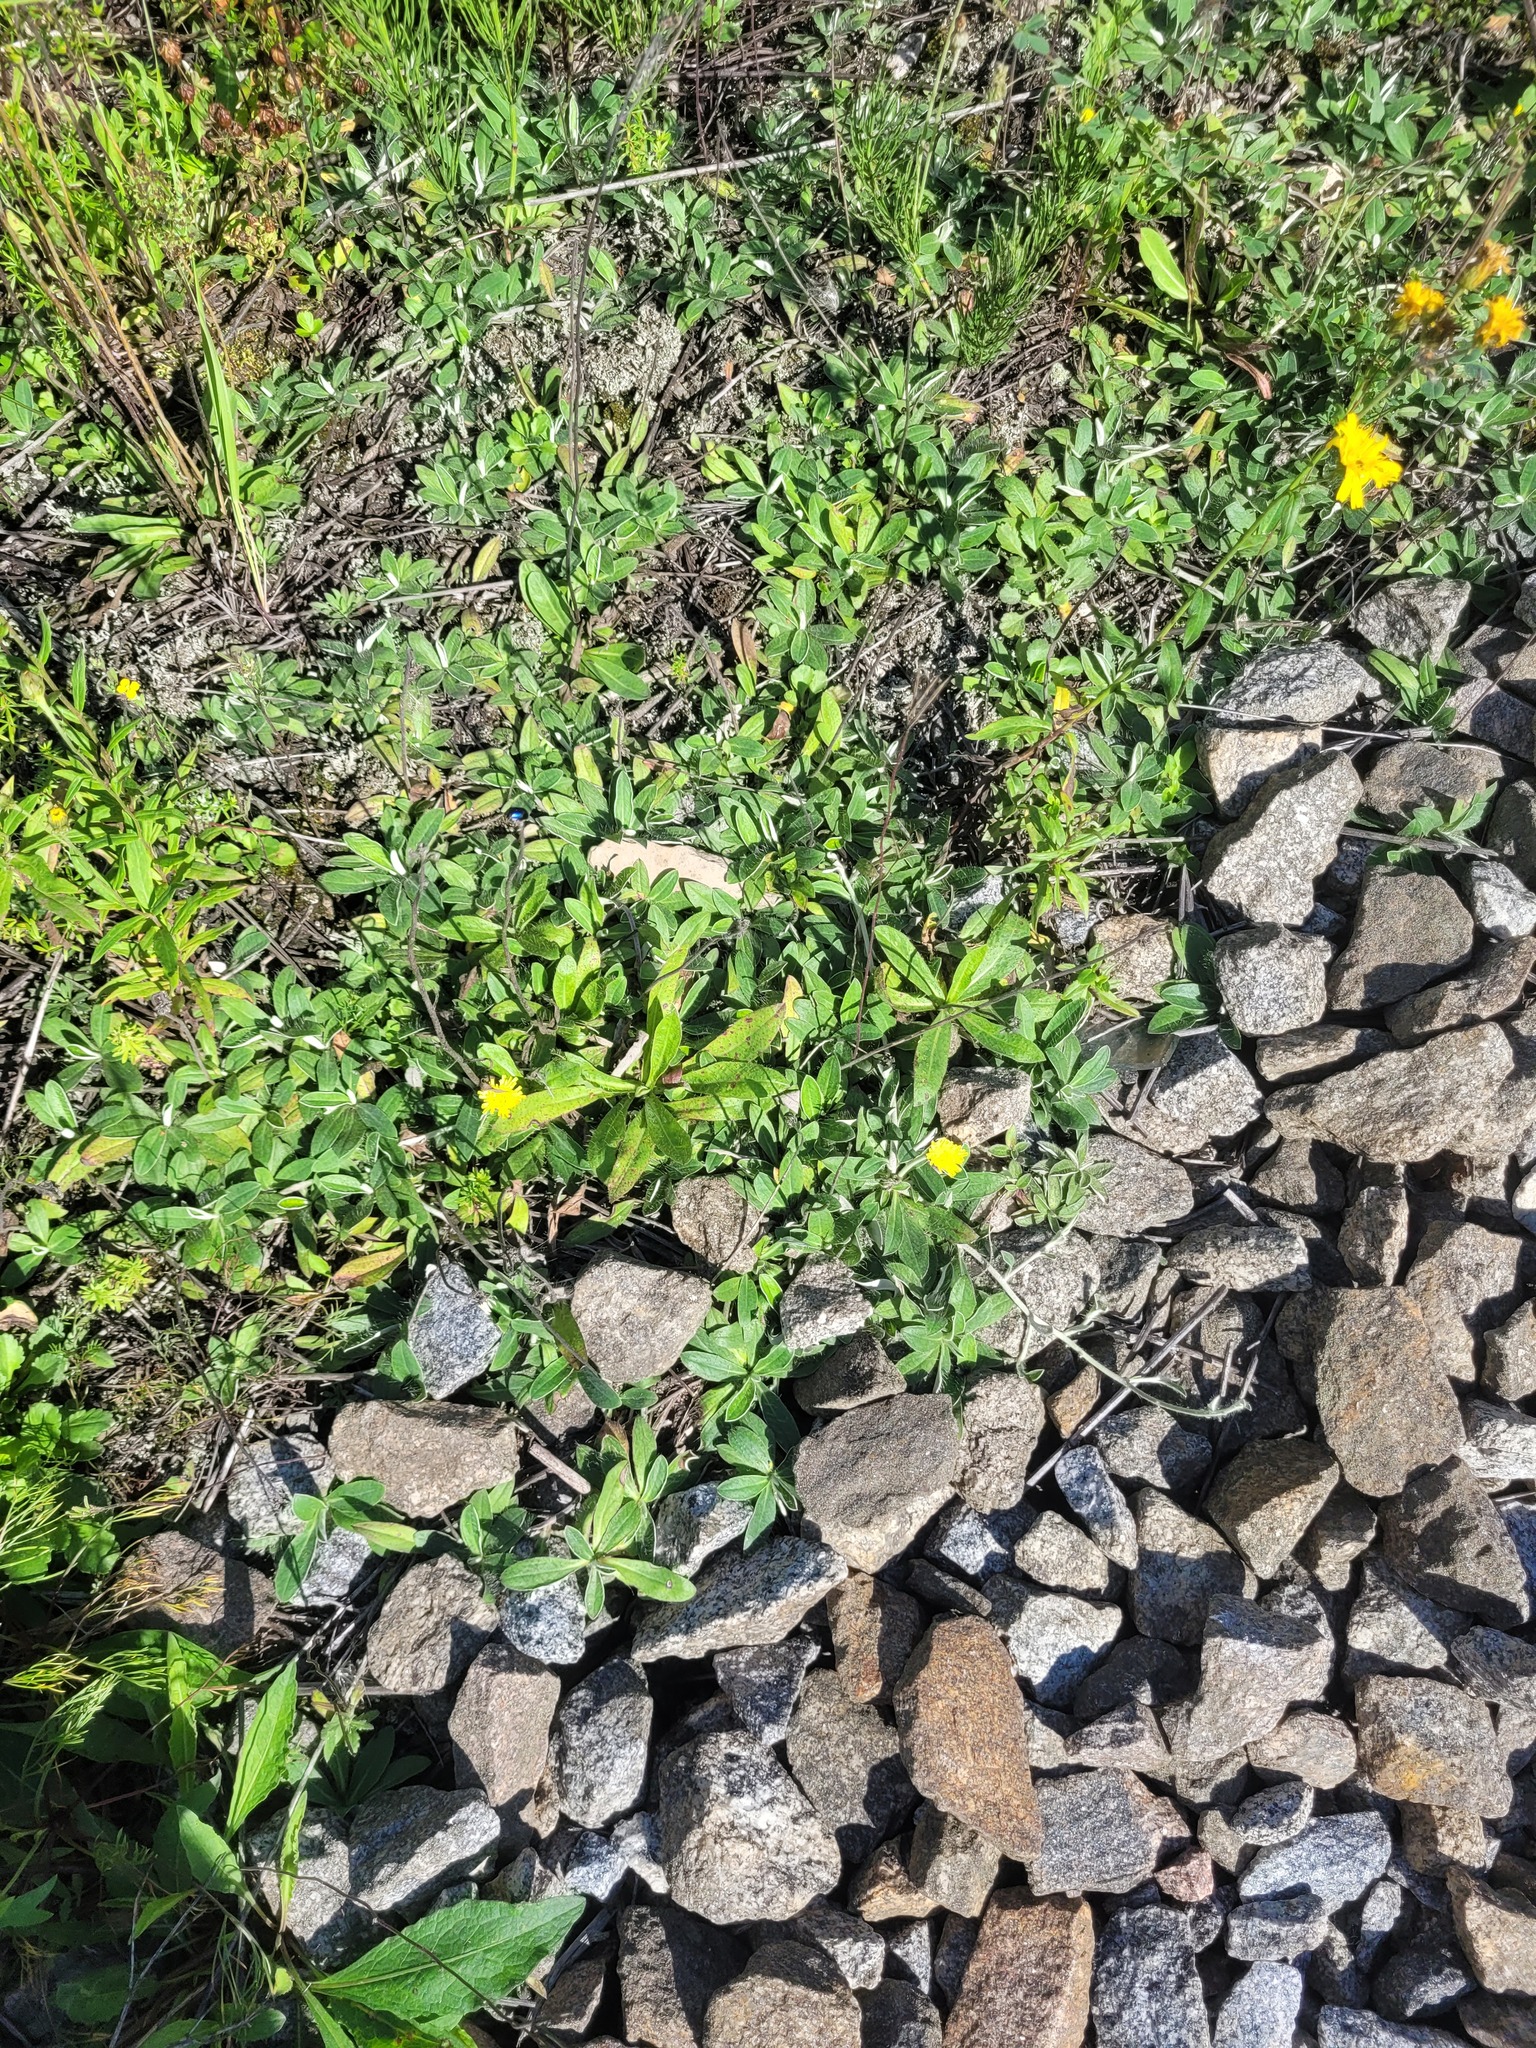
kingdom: Plantae
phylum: Tracheophyta
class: Magnoliopsida
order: Asterales
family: Asteraceae
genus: Pilosella
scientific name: Pilosella officinarum
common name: Mouse-ear hawkweed
